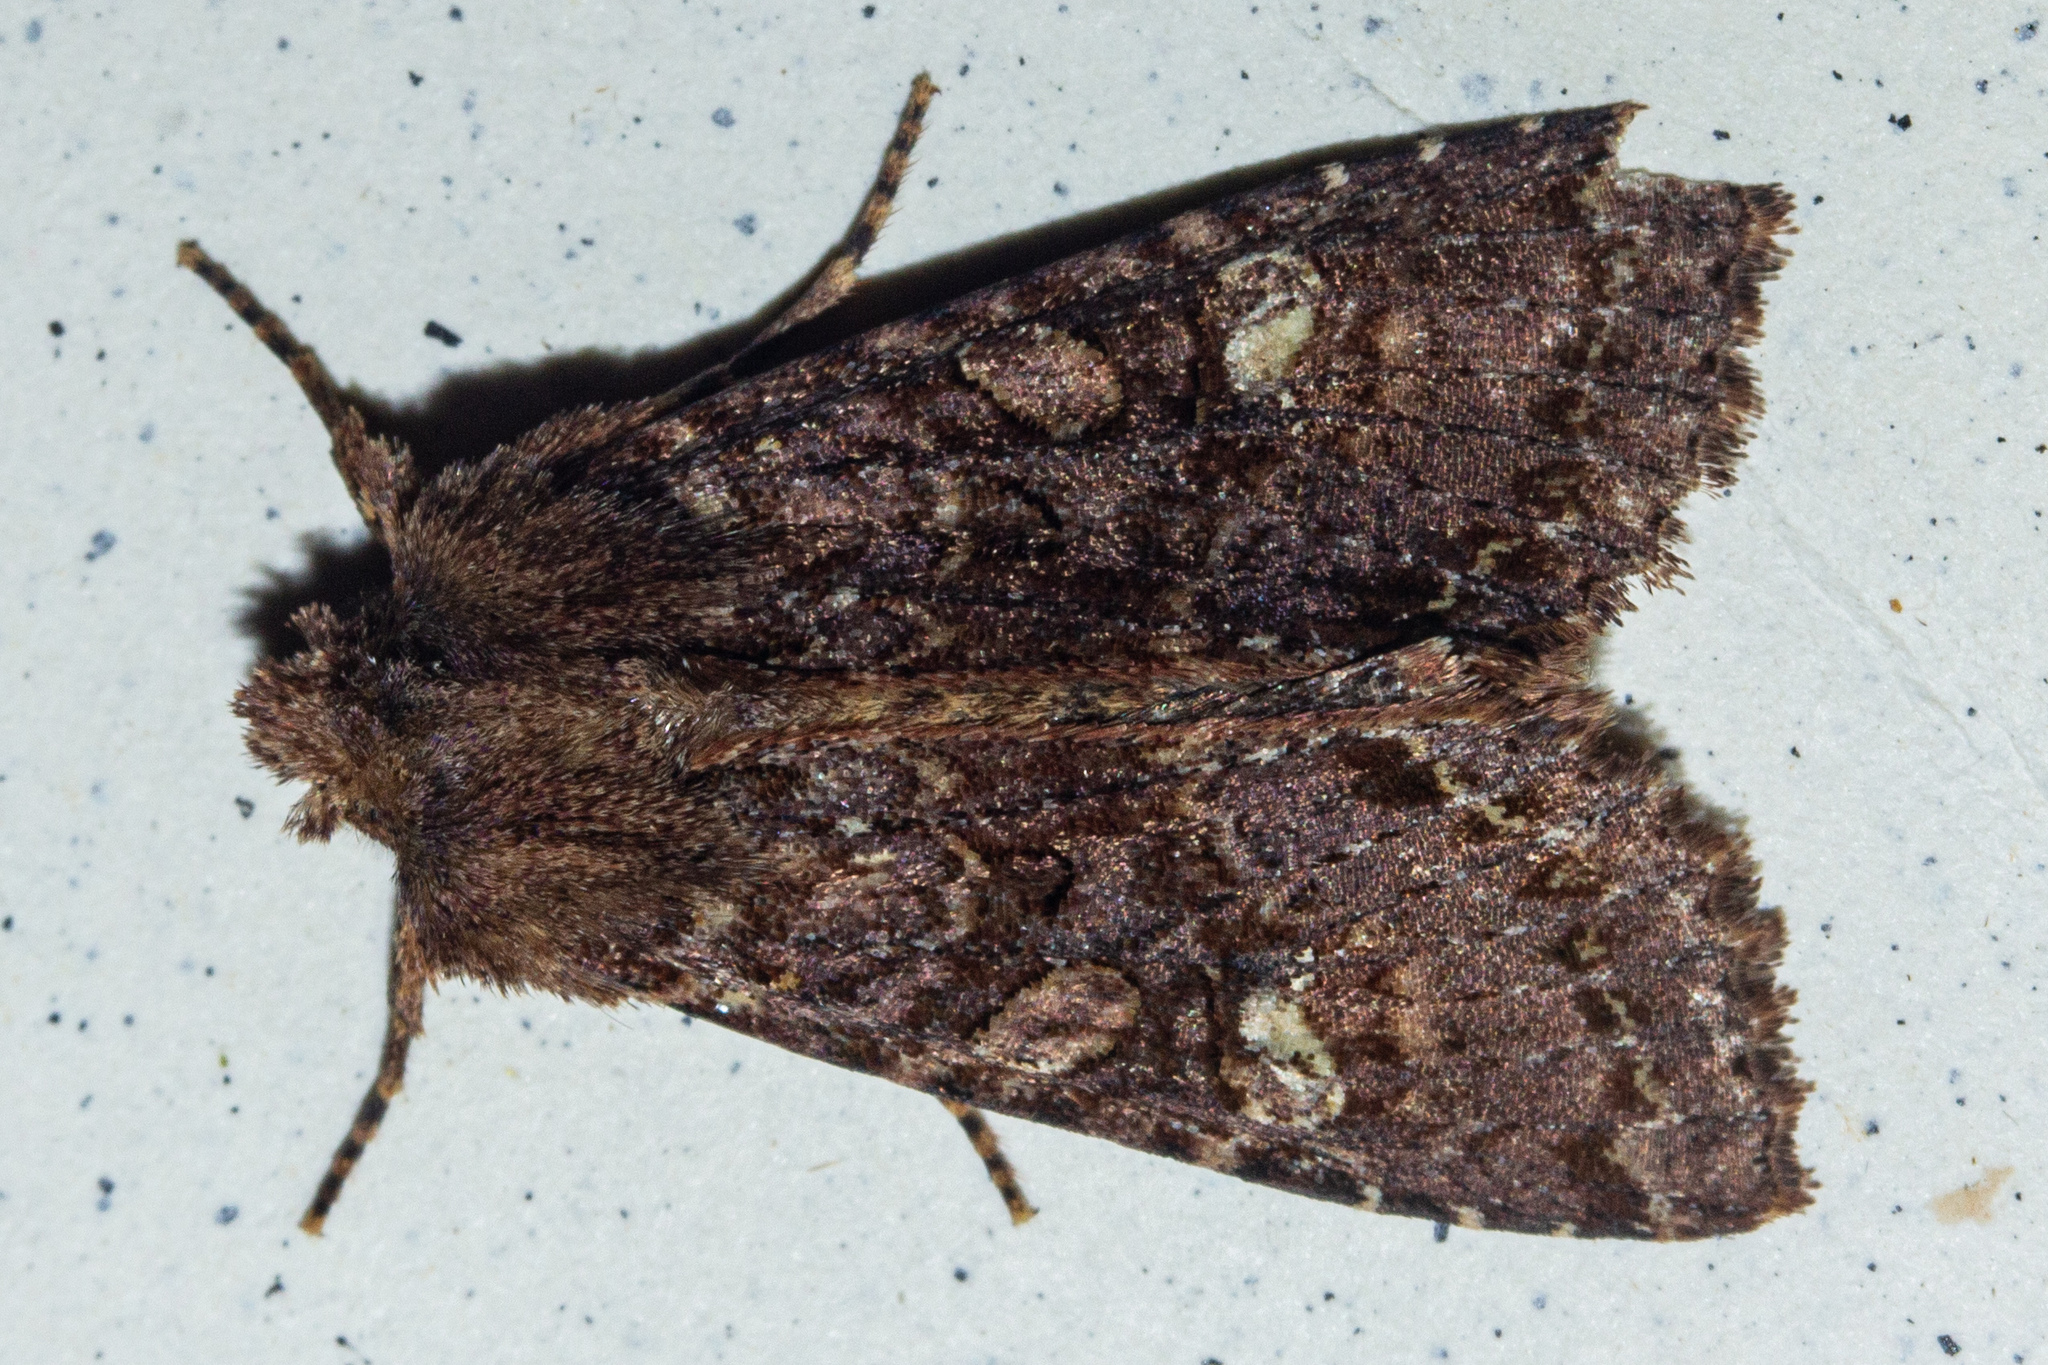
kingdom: Animalia
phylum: Arthropoda
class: Insecta
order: Lepidoptera
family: Noctuidae
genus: Meterana
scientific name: Meterana
